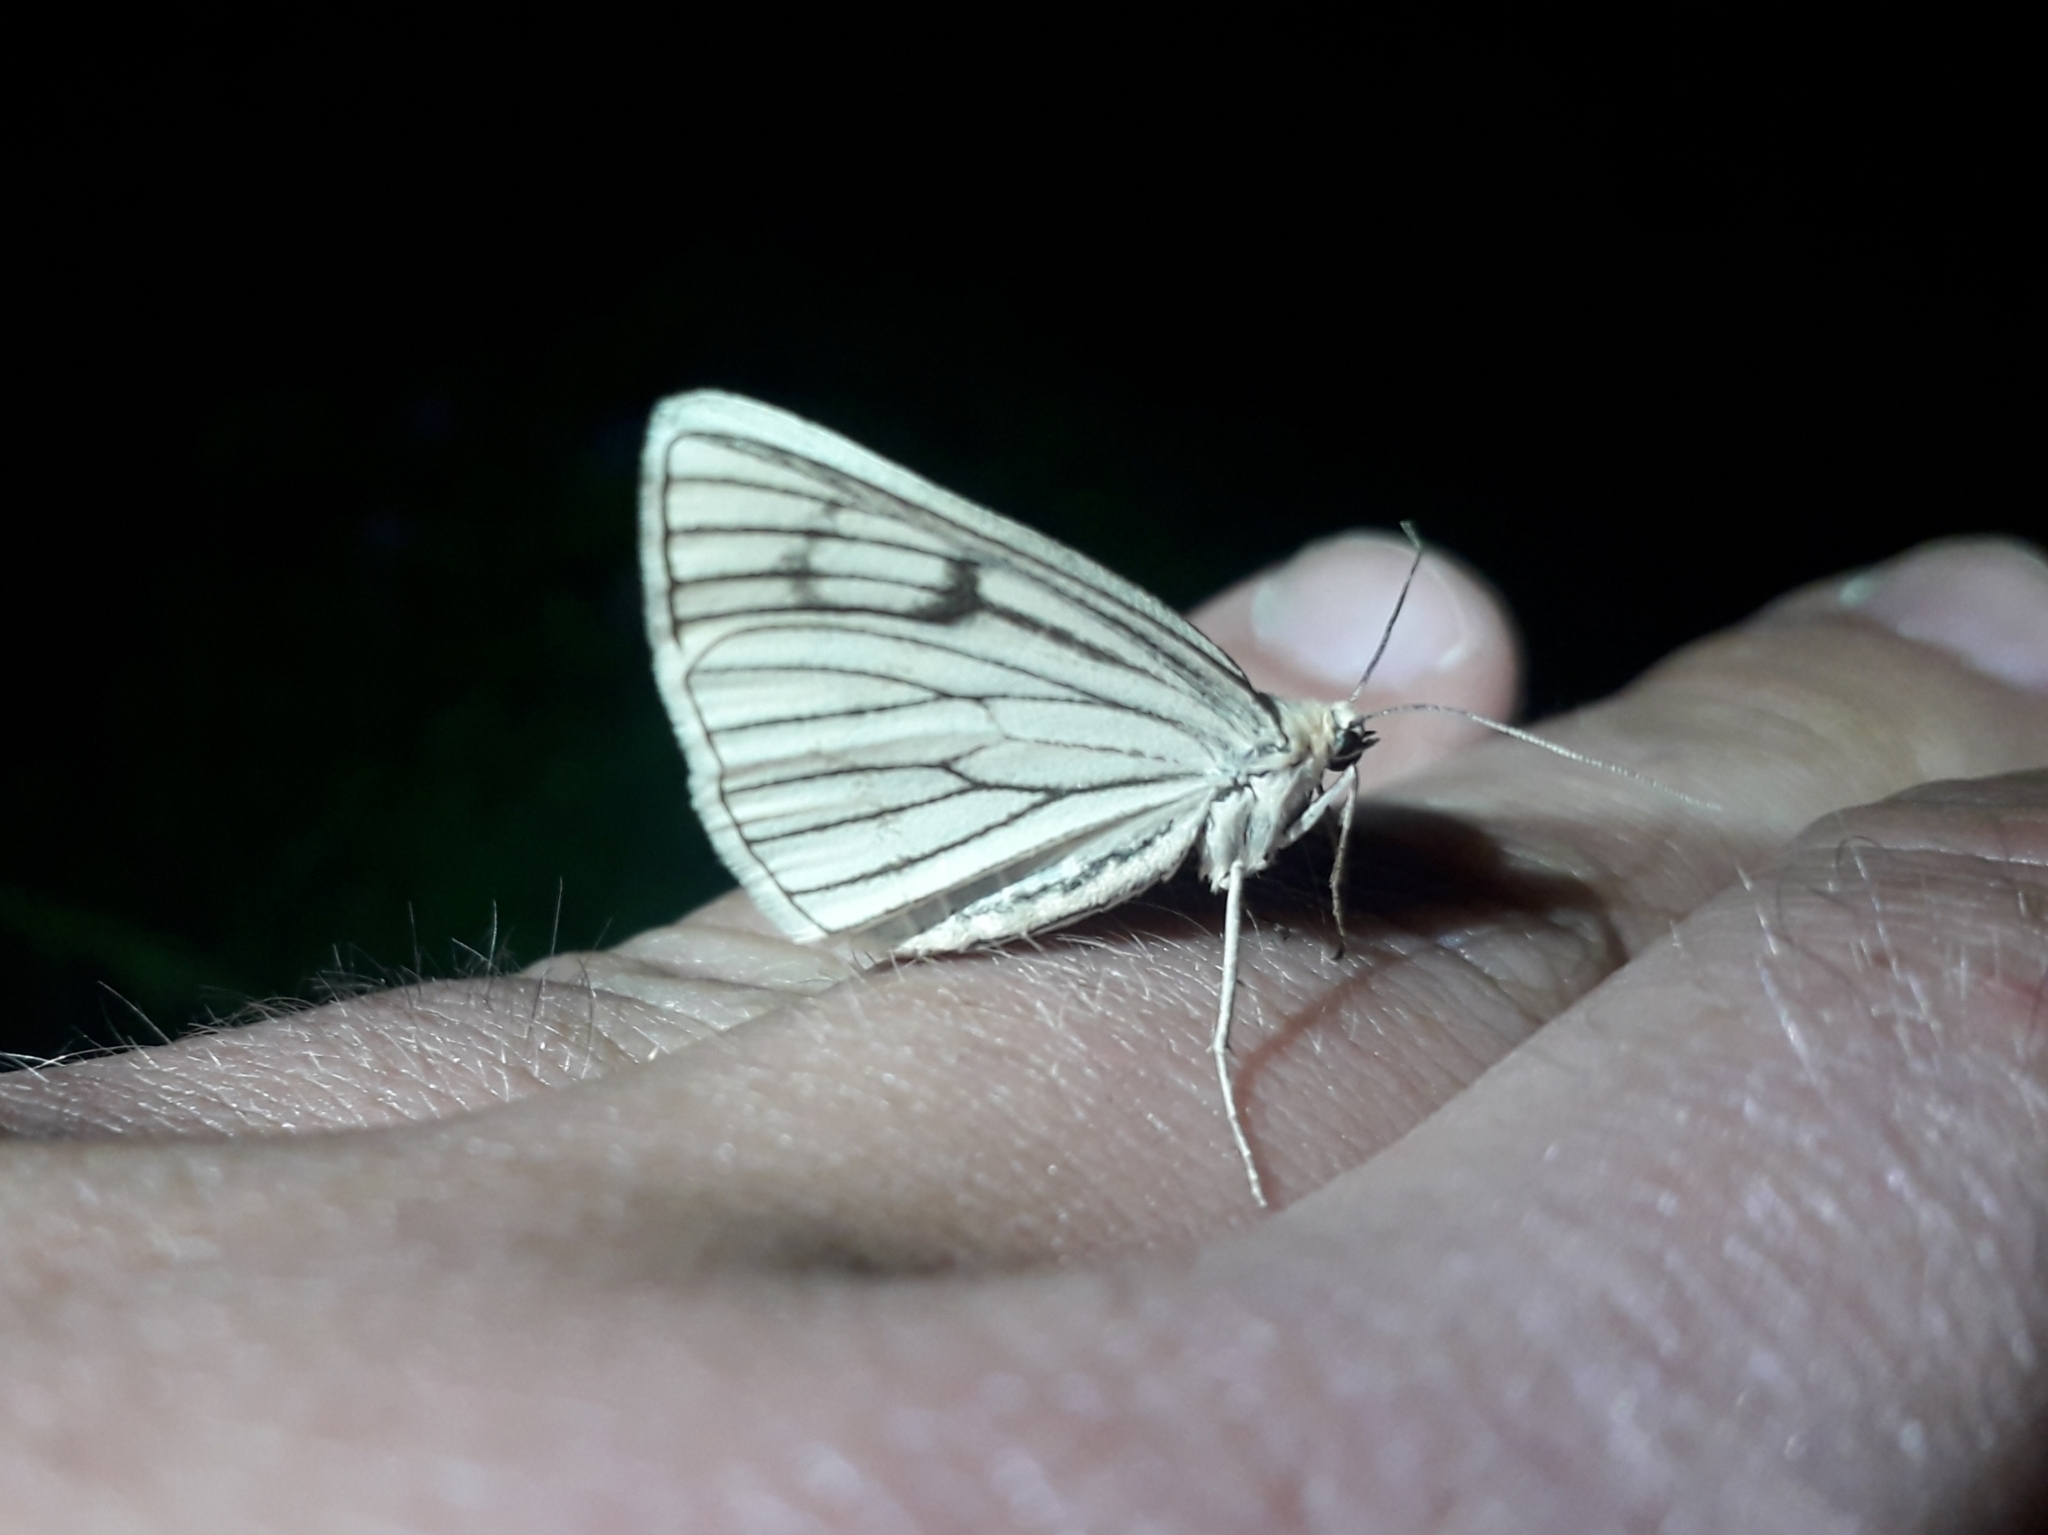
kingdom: Animalia
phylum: Arthropoda
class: Insecta
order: Lepidoptera
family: Geometridae
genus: Siona
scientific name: Siona lineata
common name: Black-veined moth
